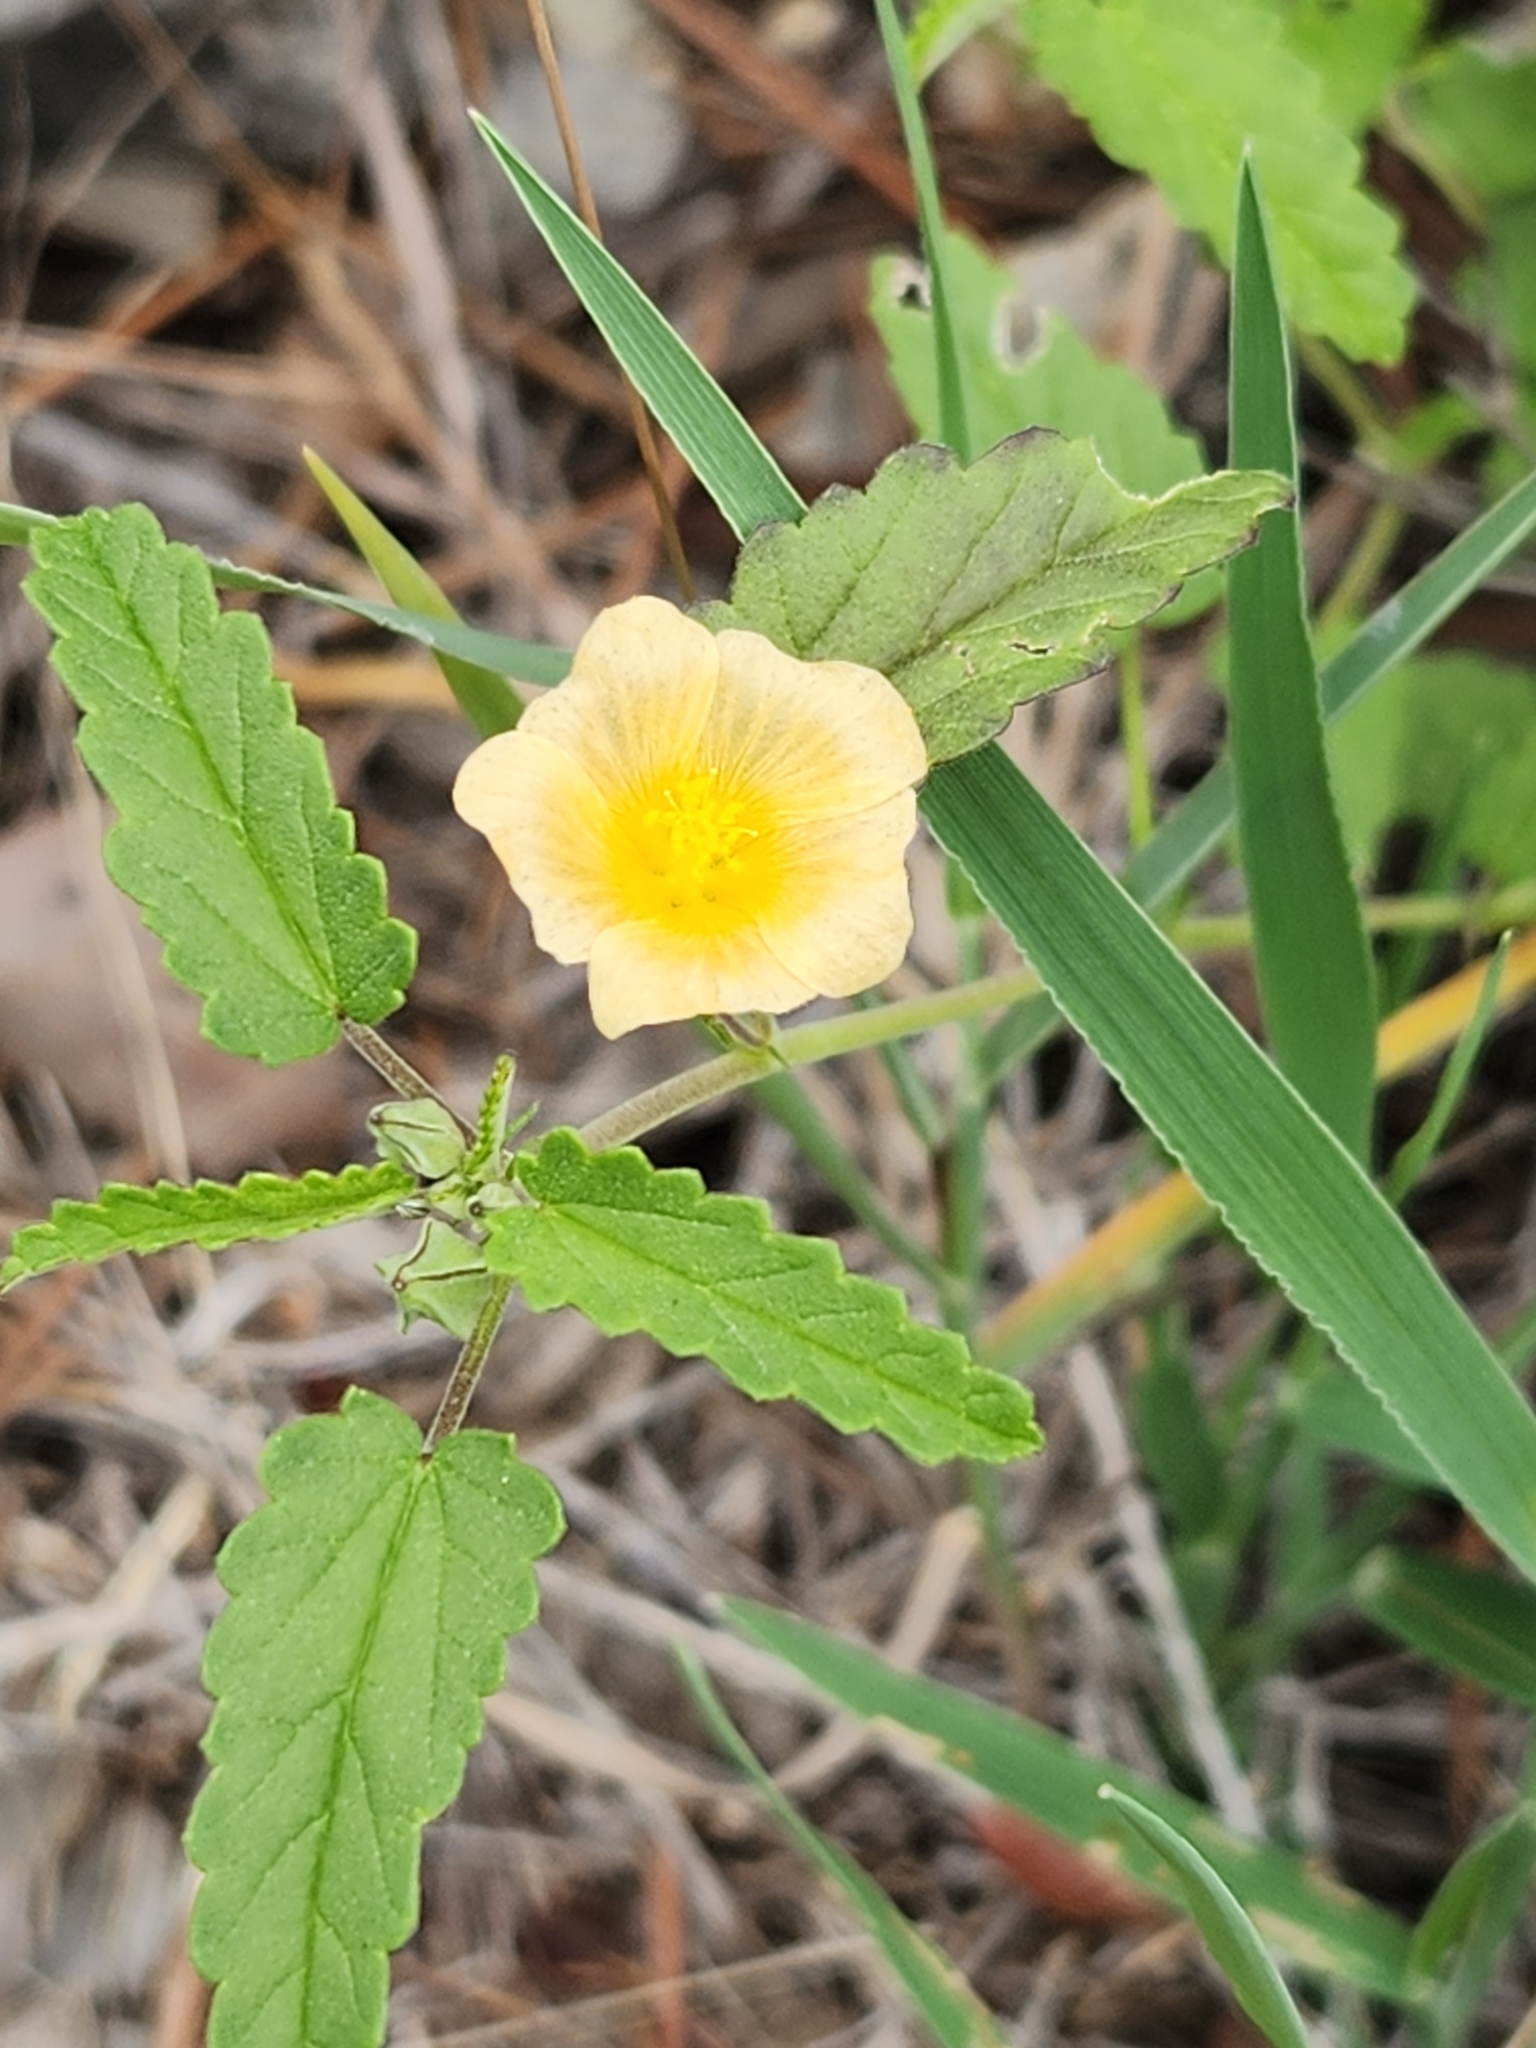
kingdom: Plantae
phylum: Tracheophyta
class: Magnoliopsida
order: Malvales
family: Malvaceae
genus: Sida
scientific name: Sida abutilifolia
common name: Spreading fanpetals
